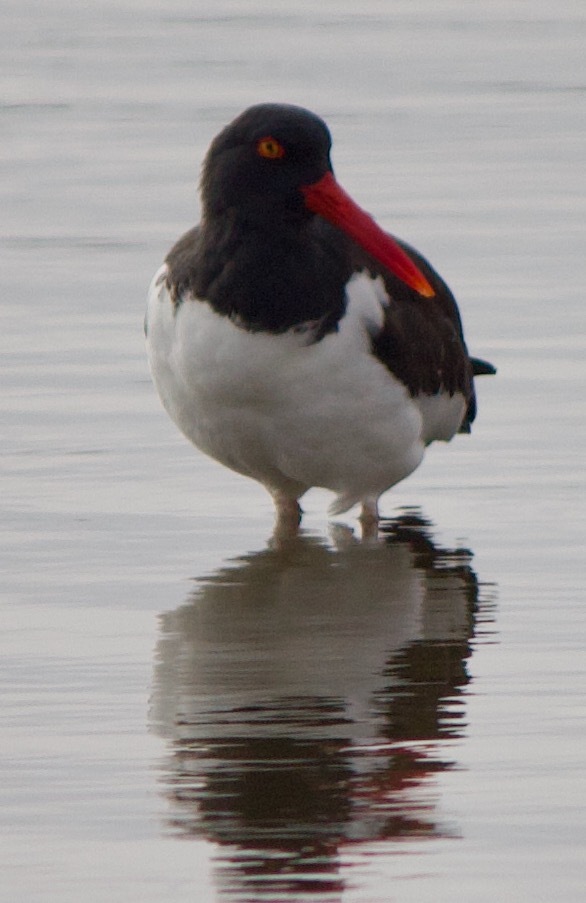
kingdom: Animalia
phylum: Chordata
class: Aves
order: Charadriiformes
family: Haematopodidae
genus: Haematopus
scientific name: Haematopus palliatus
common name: American oystercatcher
